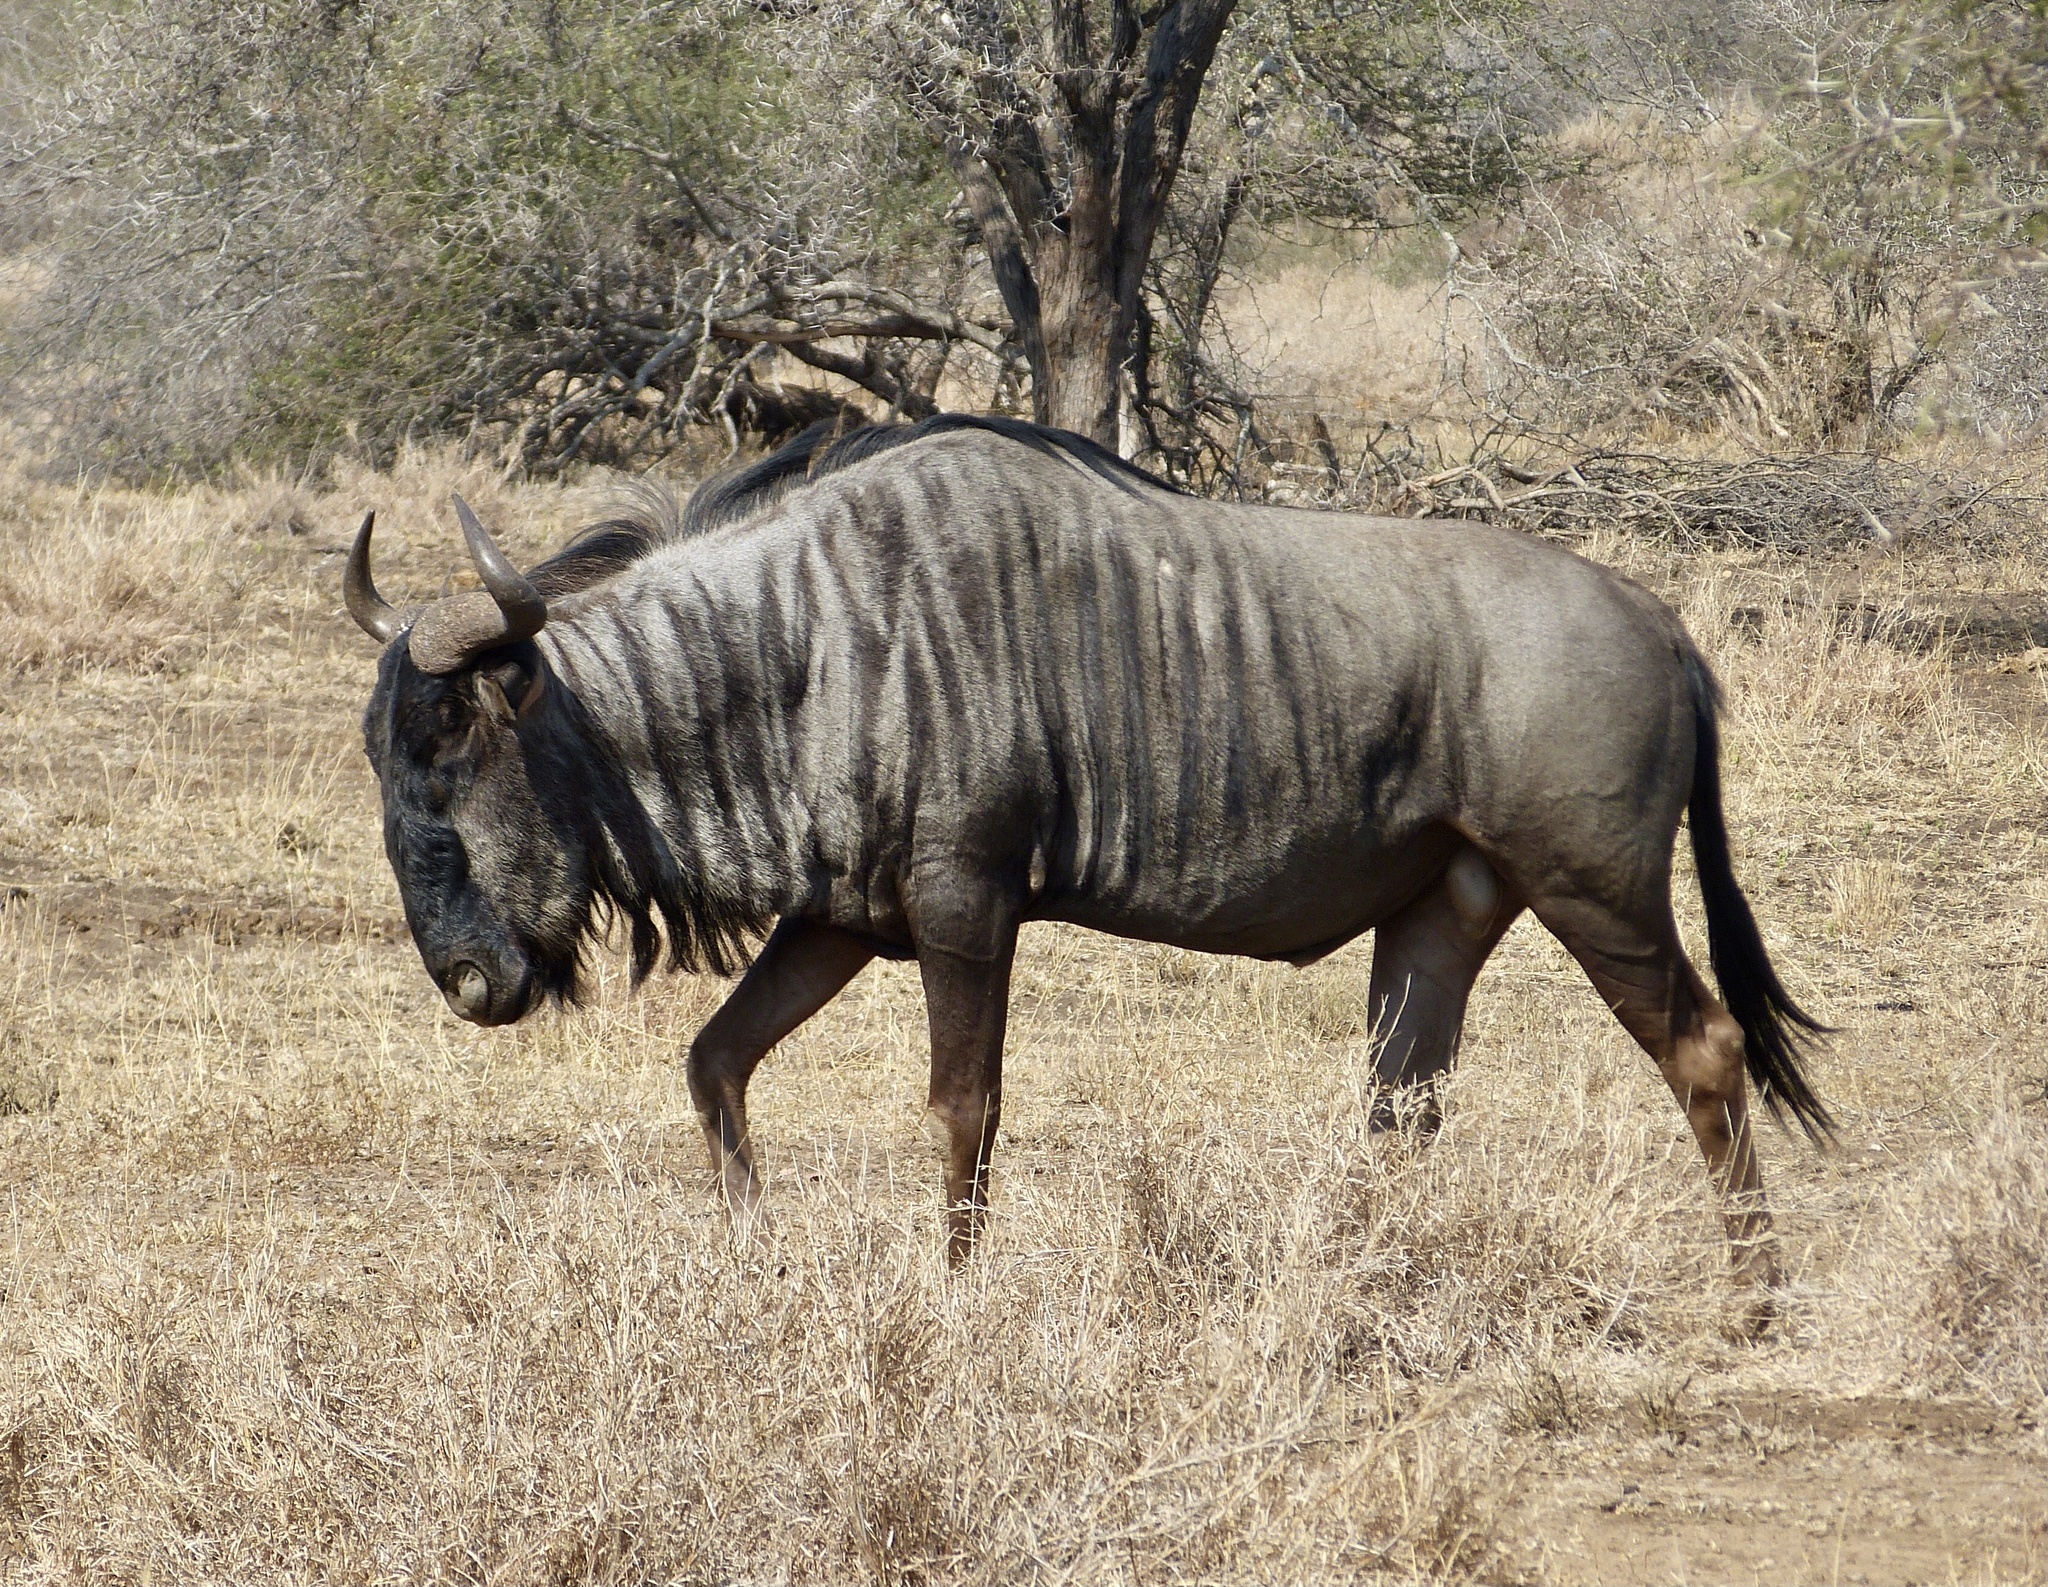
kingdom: Animalia
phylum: Chordata
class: Mammalia
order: Artiodactyla
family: Bovidae
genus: Connochaetes
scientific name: Connochaetes taurinus
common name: Blue wildebeest
